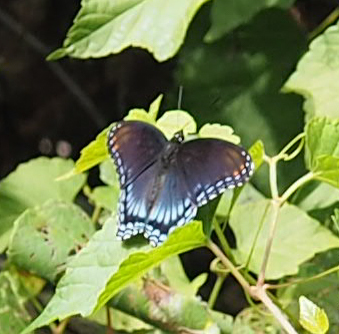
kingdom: Animalia
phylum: Arthropoda
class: Insecta
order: Lepidoptera
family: Nymphalidae
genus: Limenitis
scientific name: Limenitis astyanax
